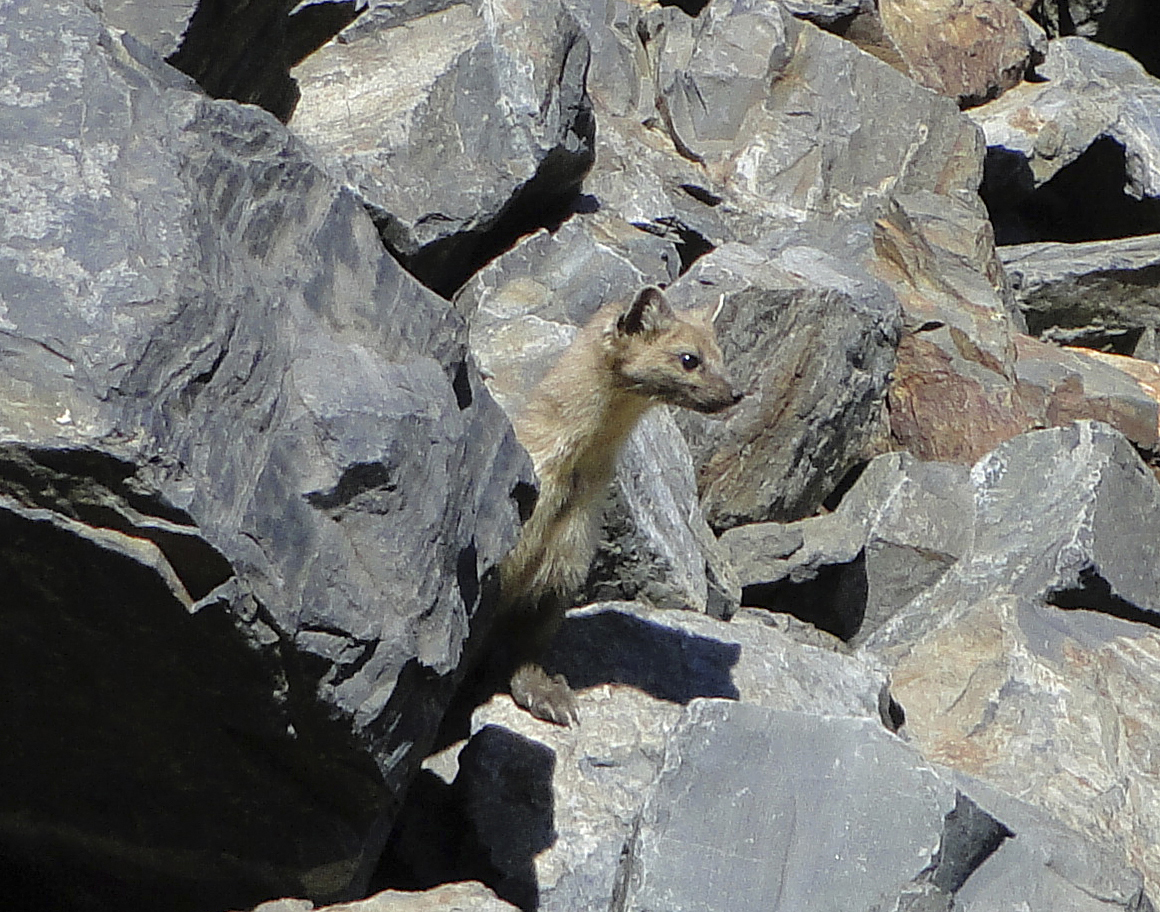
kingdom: Animalia
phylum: Chordata
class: Mammalia
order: Carnivora
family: Mustelidae
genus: Martes
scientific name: Martes caurina
